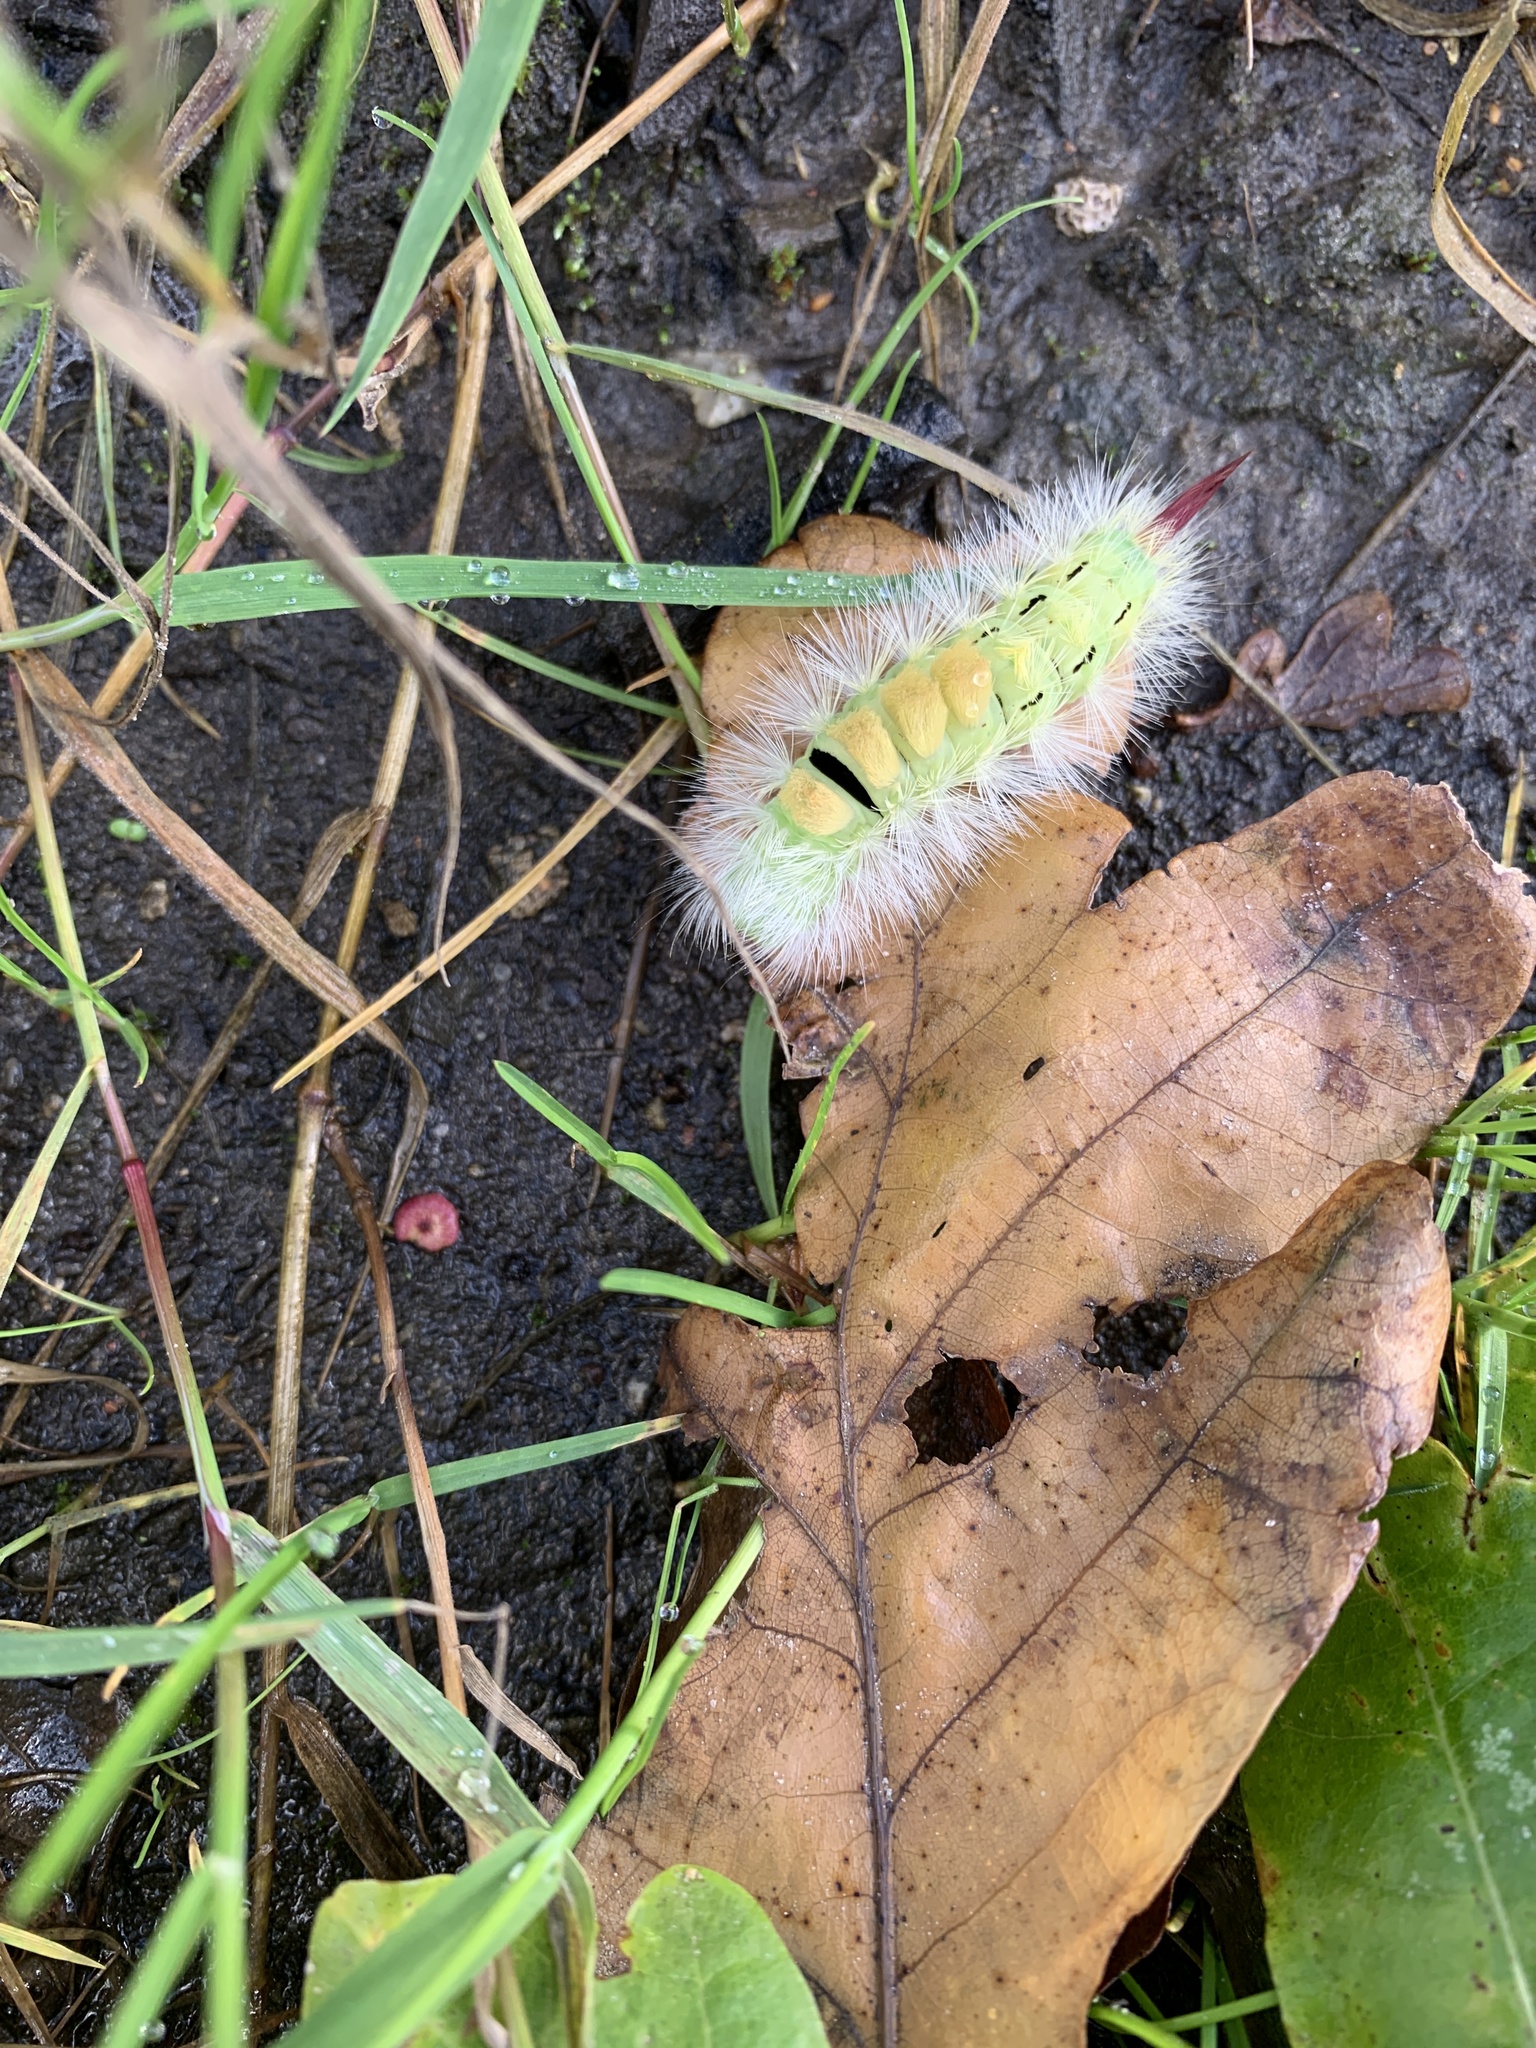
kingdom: Animalia
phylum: Arthropoda
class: Insecta
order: Lepidoptera
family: Erebidae
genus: Calliteara
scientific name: Calliteara pudibunda
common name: Pale tussock
